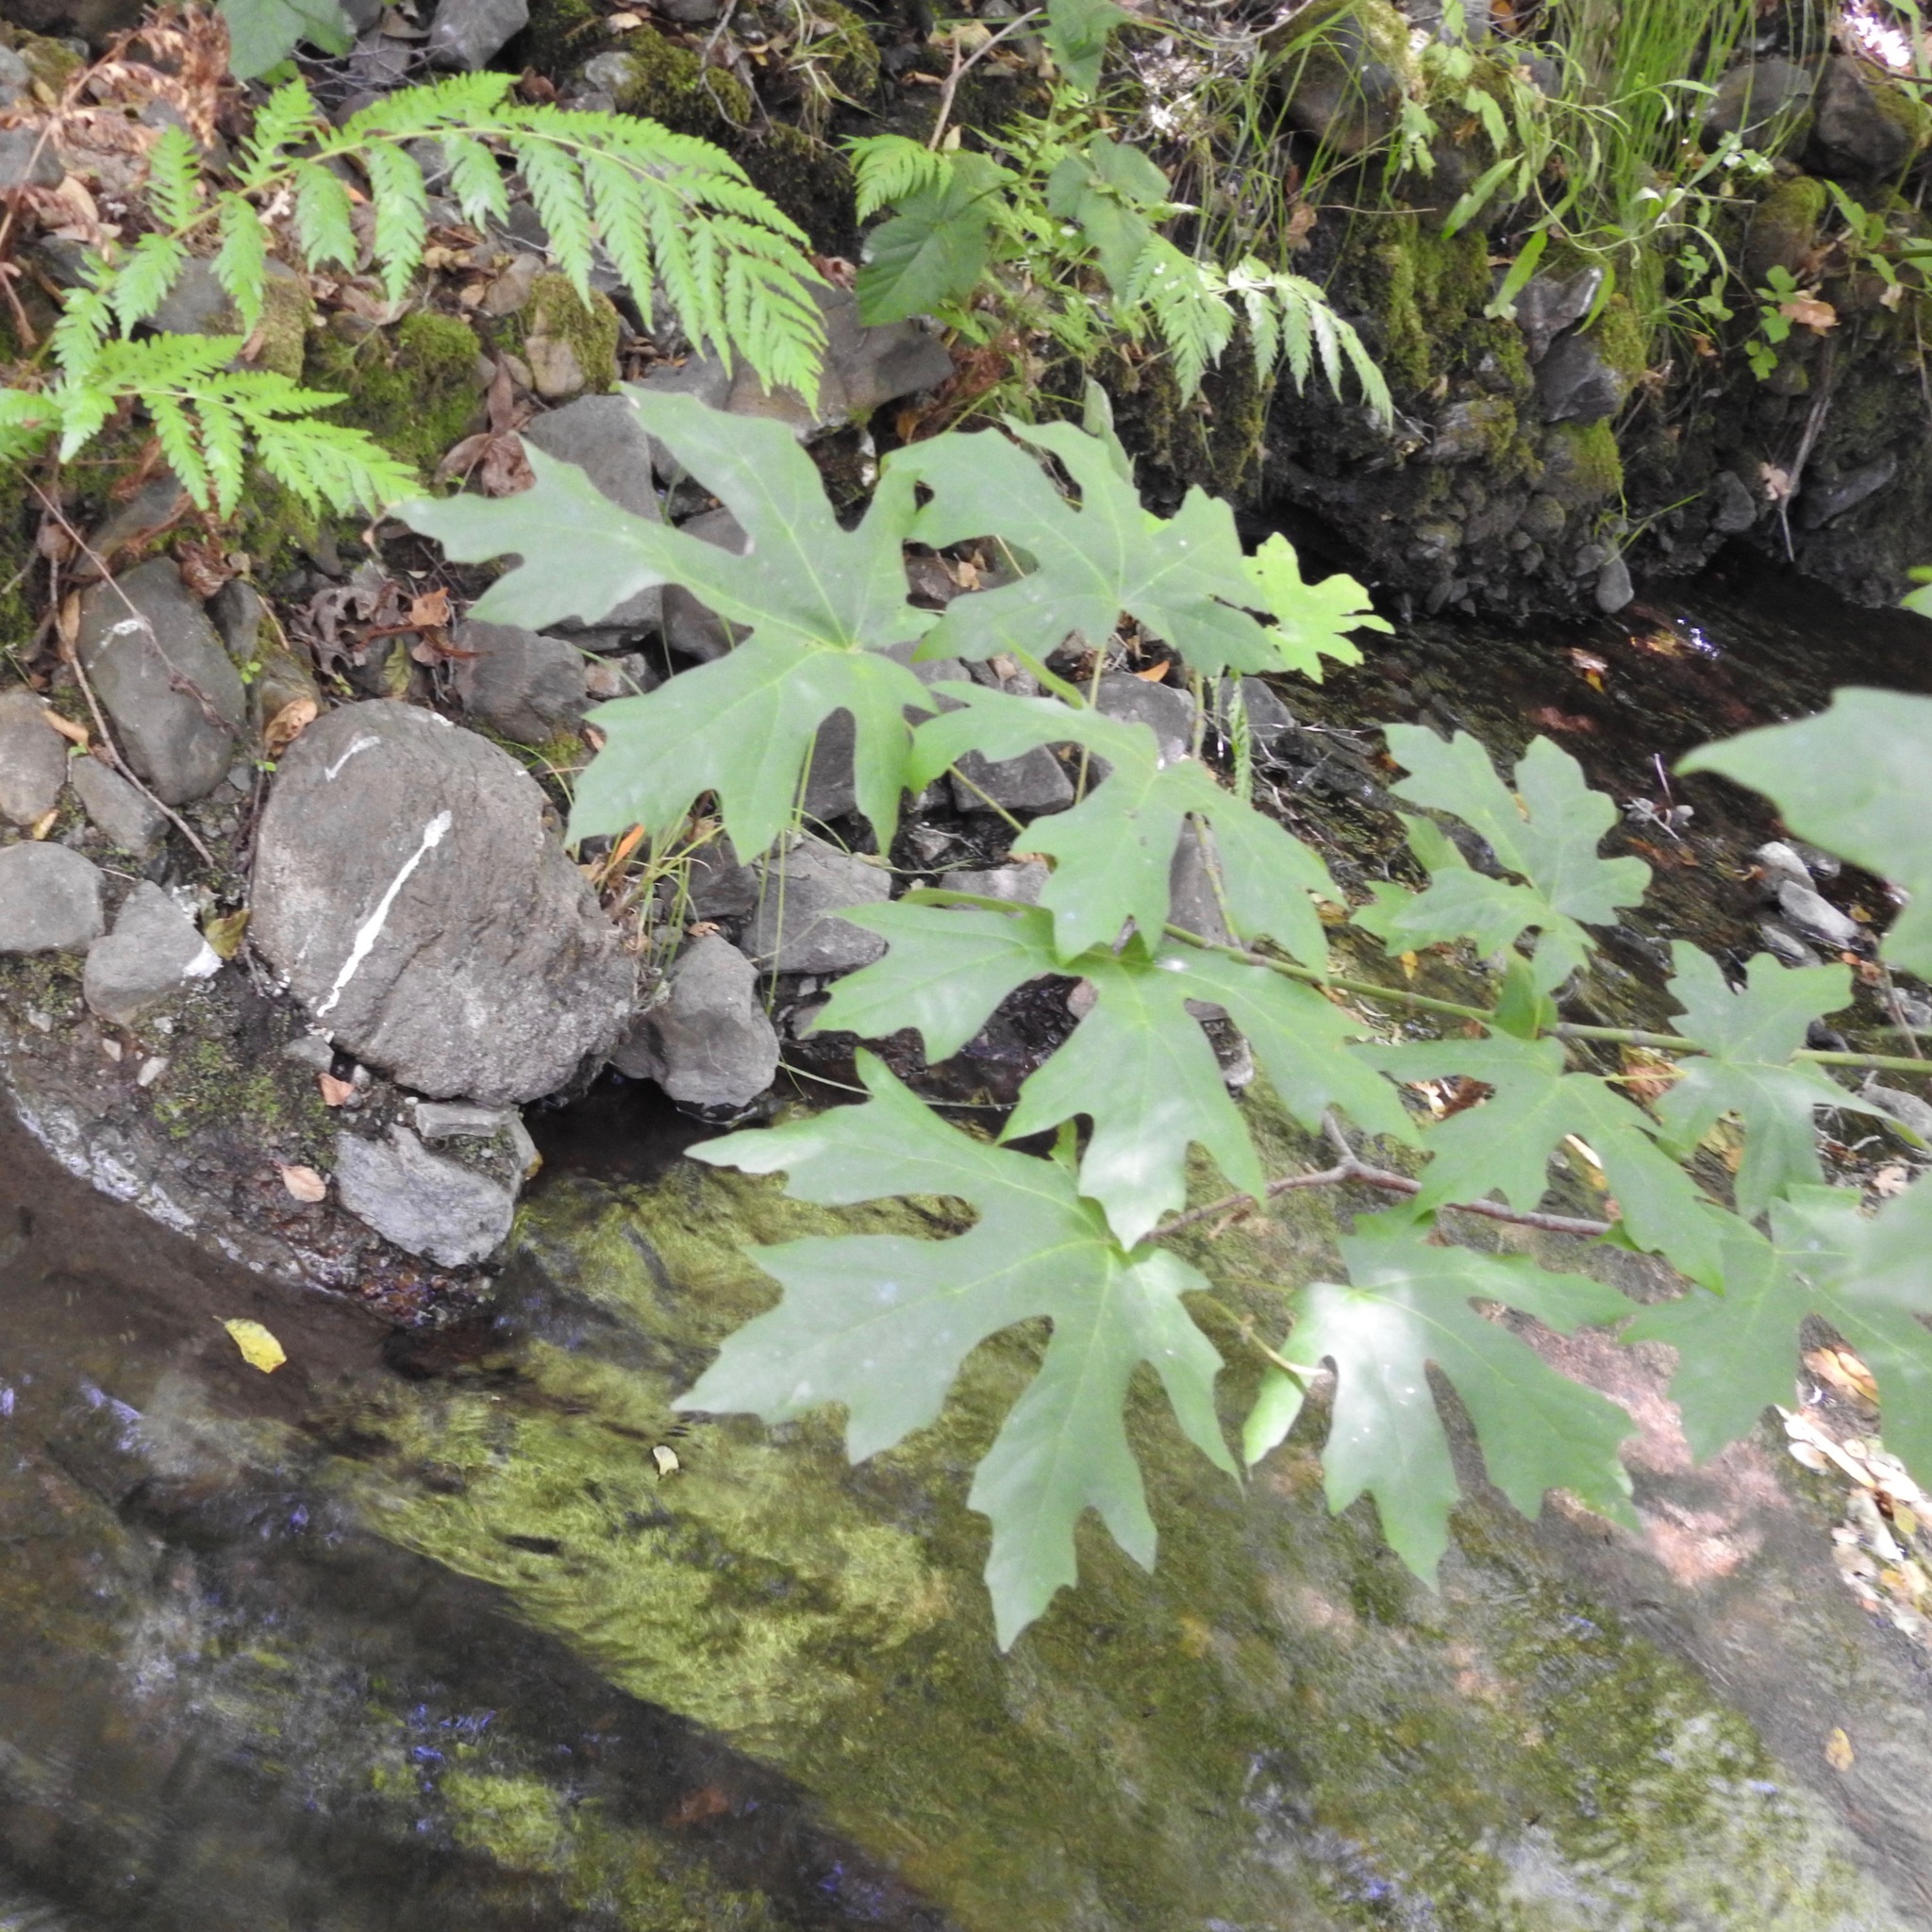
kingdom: Plantae
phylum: Tracheophyta
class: Magnoliopsida
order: Sapindales
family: Sapindaceae
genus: Acer
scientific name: Acer macrophyllum
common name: Oregon maple
